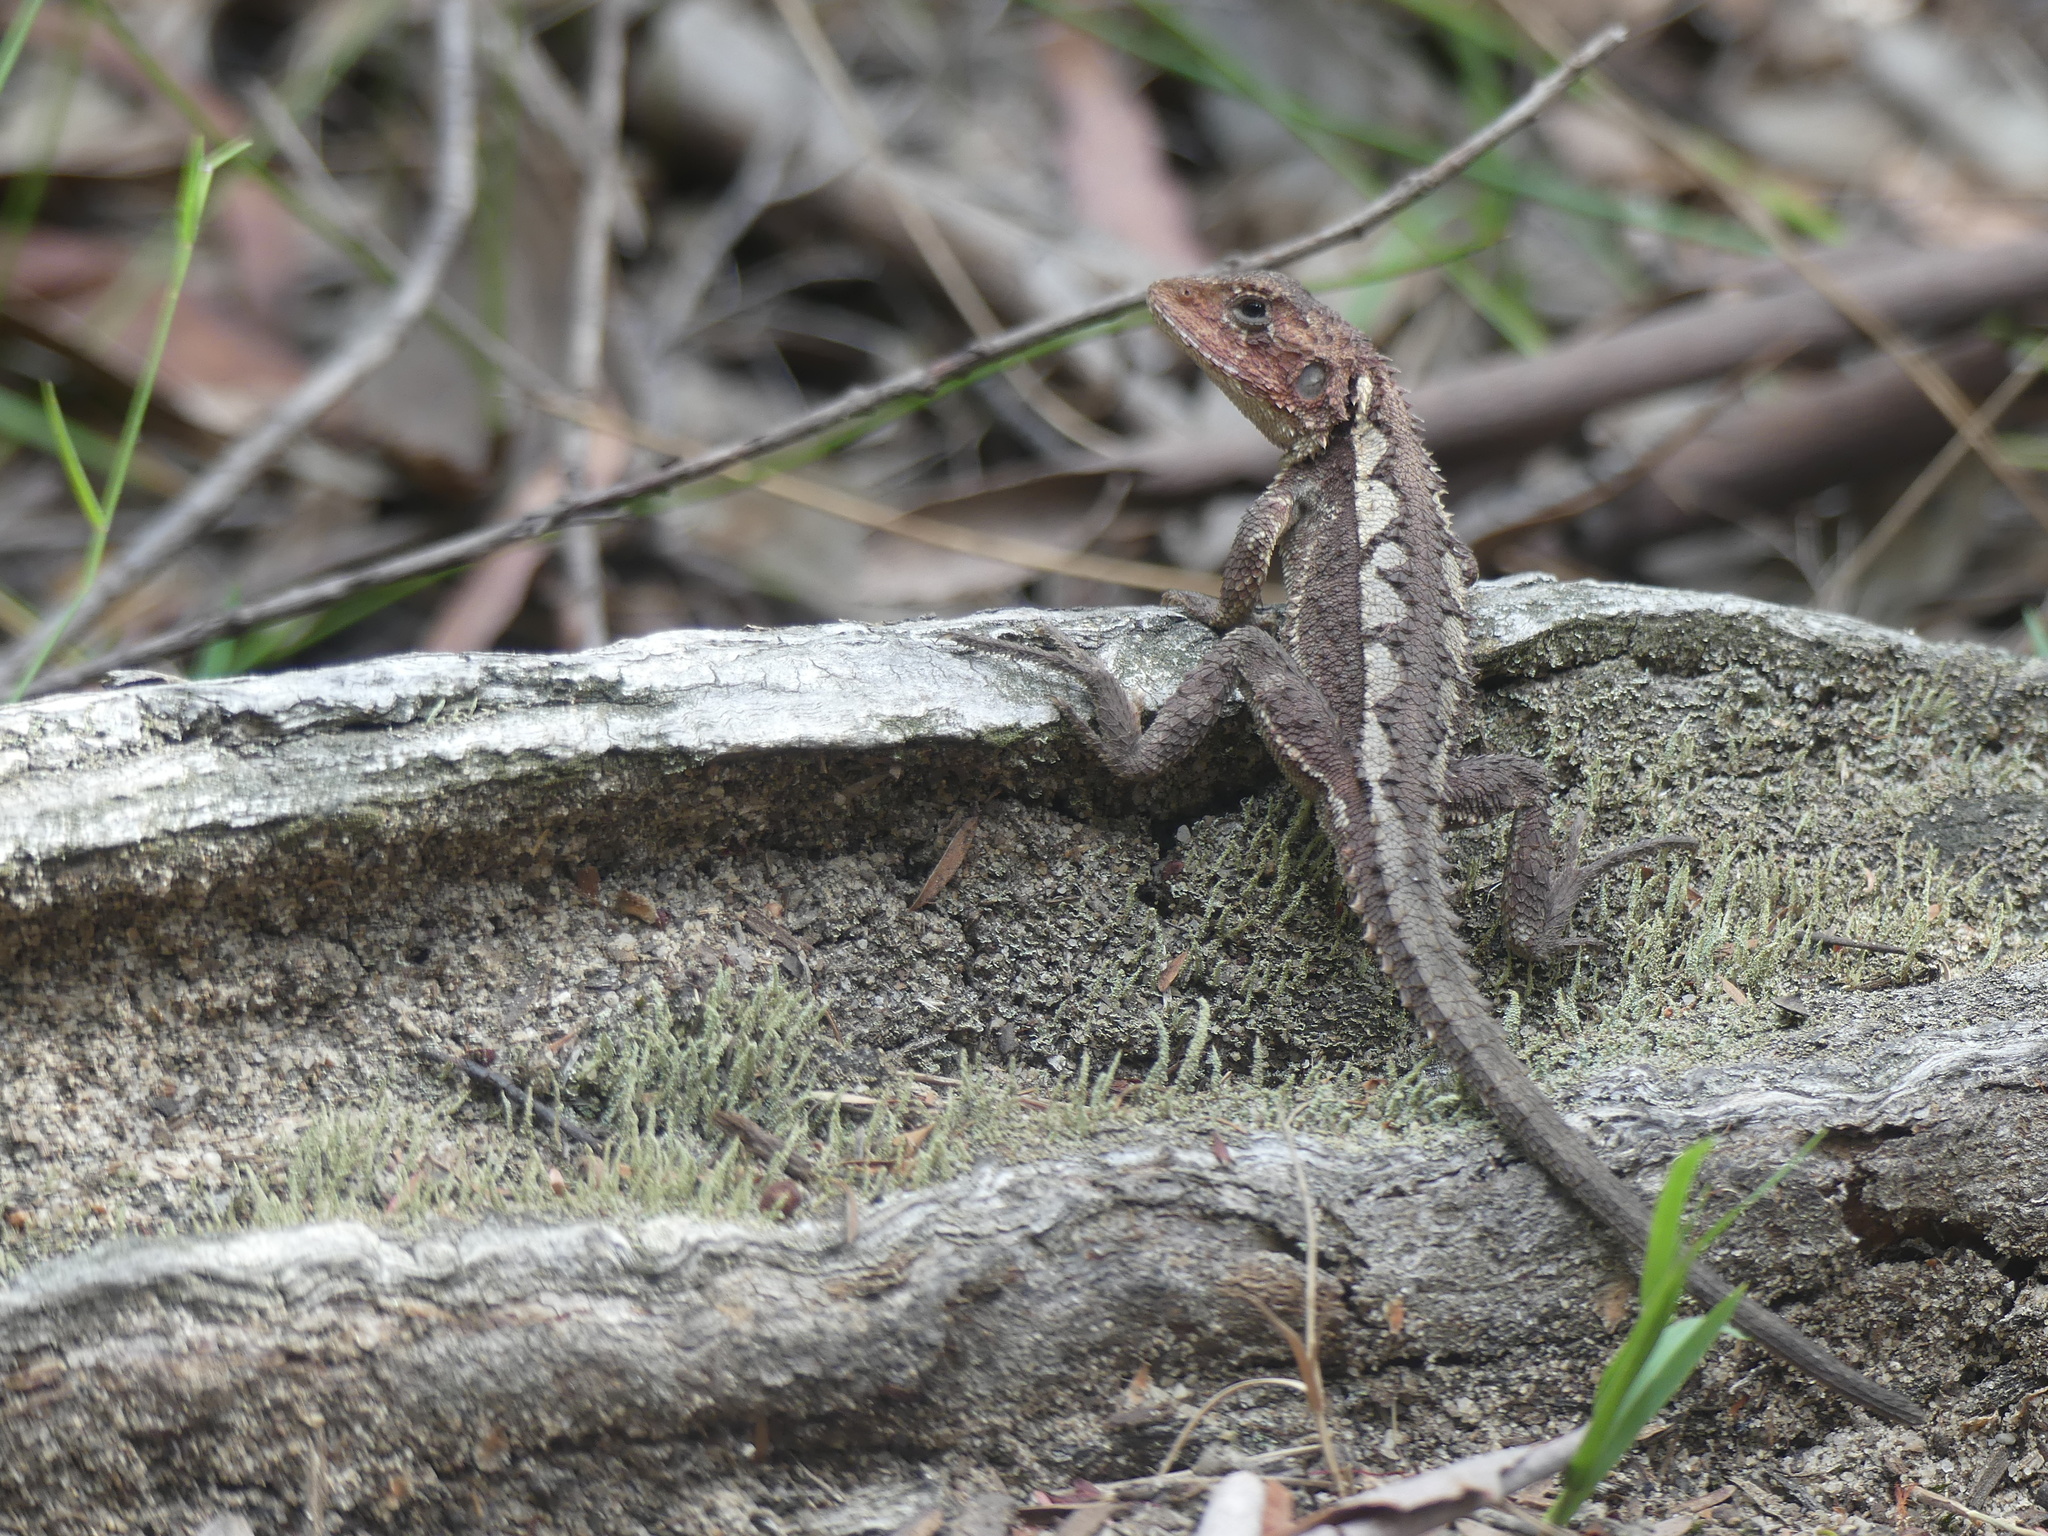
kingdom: Animalia
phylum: Chordata
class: Squamata
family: Agamidae
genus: Rankinia
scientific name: Rankinia diemensis
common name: Mountain dragon
